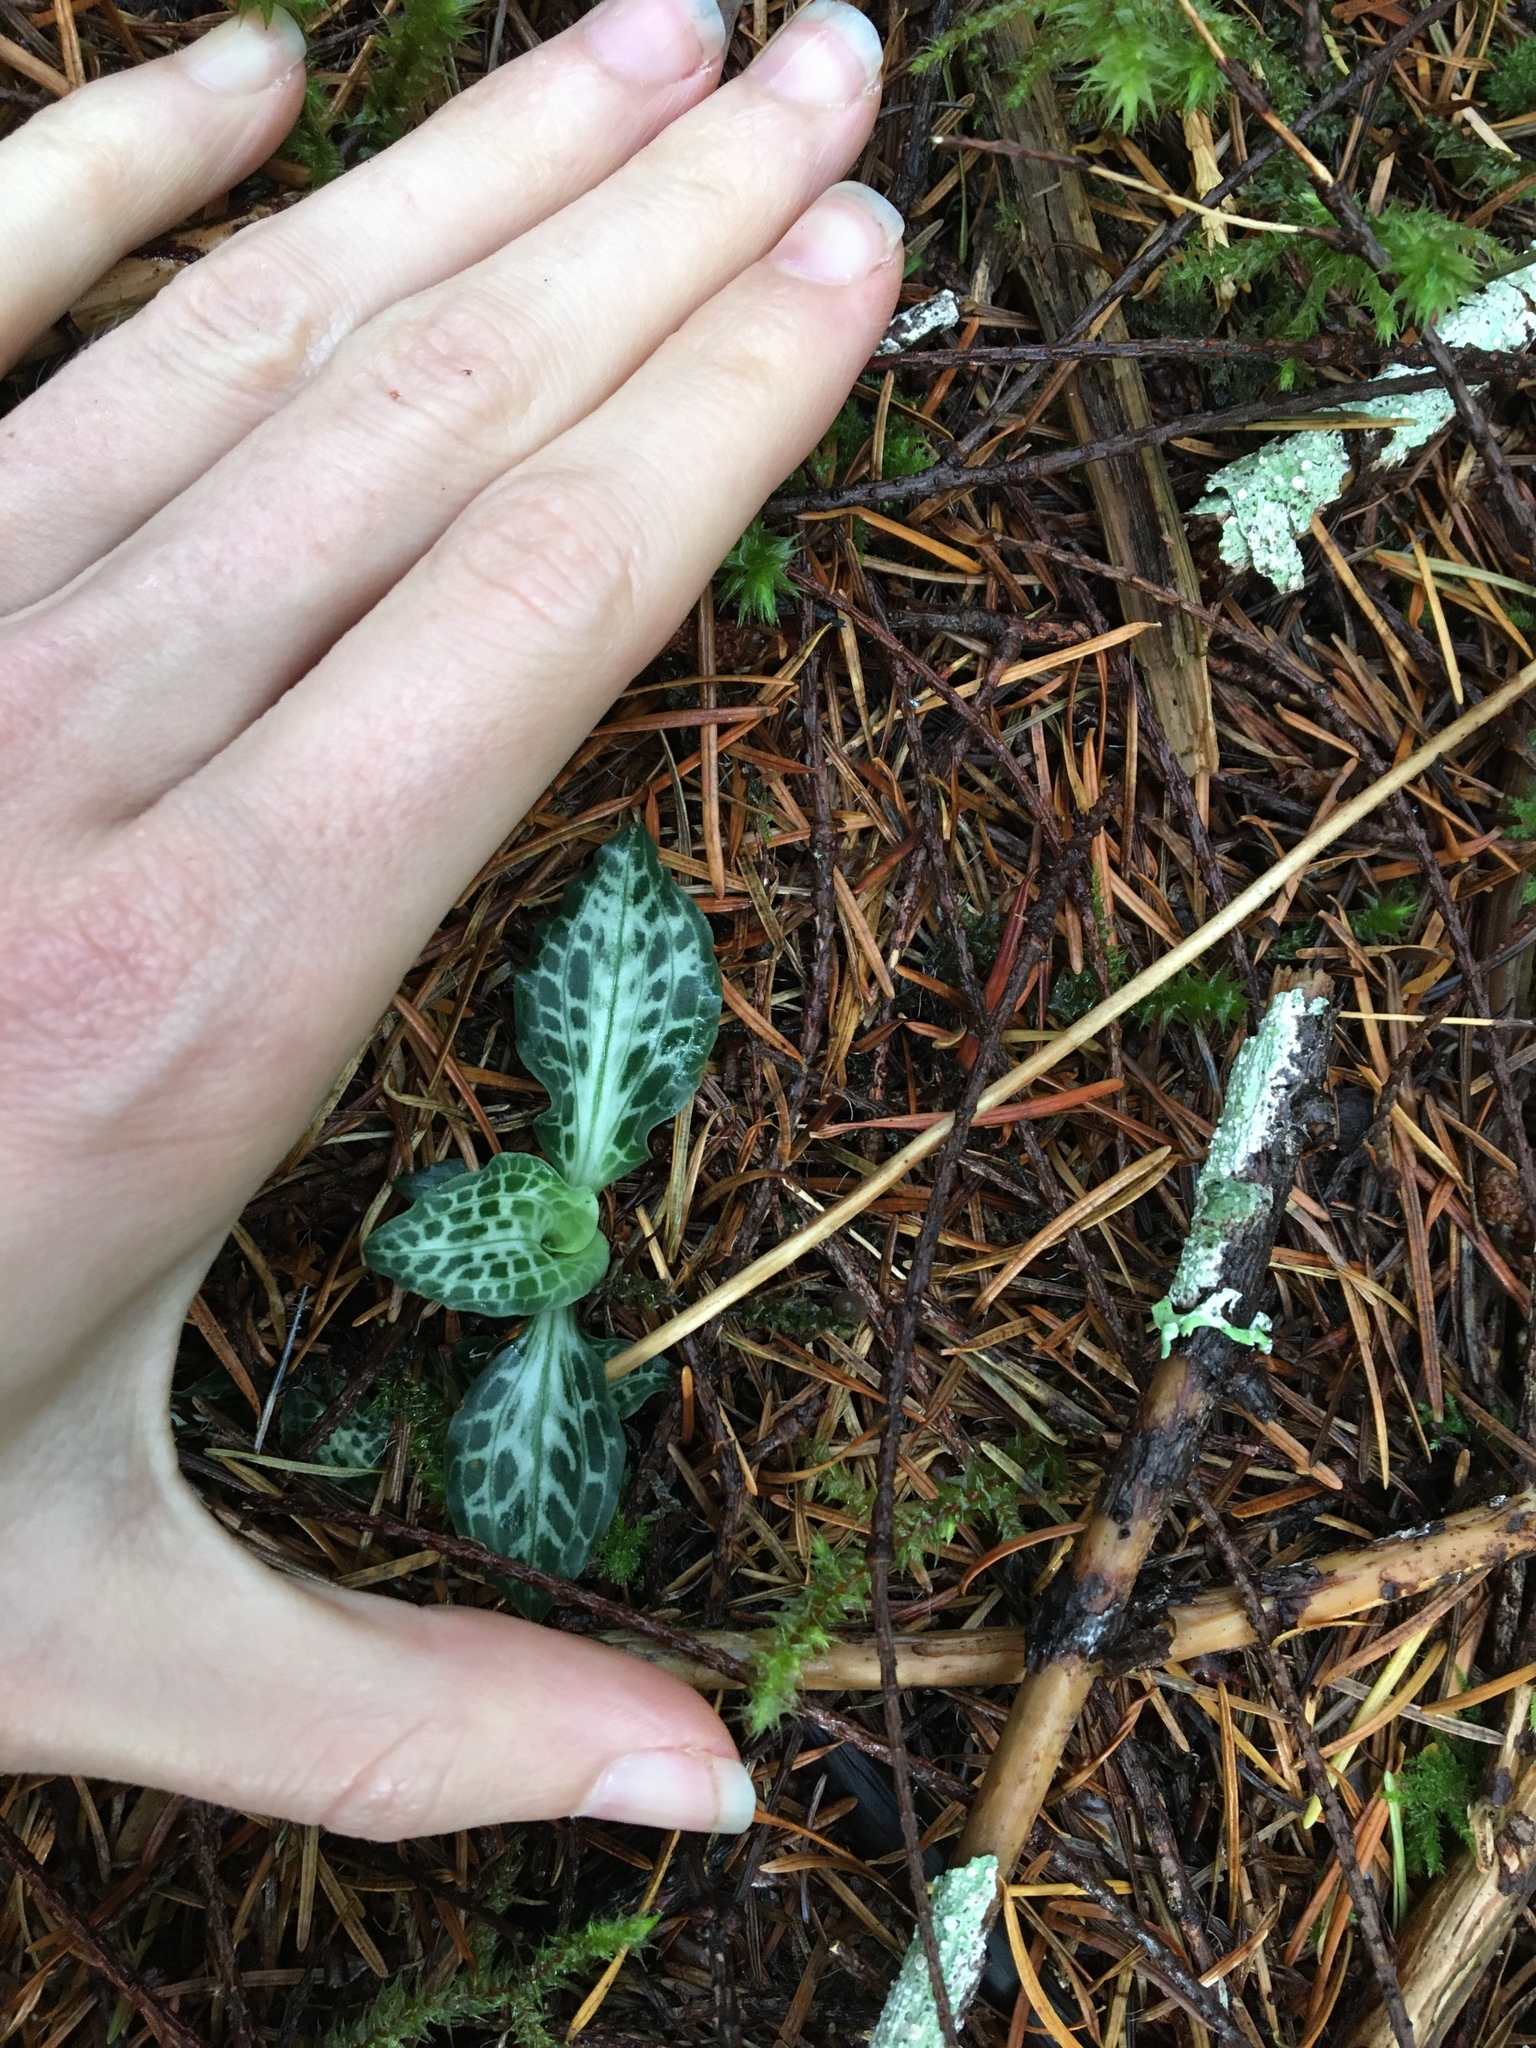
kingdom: Plantae
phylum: Tracheophyta
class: Liliopsida
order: Asparagales
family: Orchidaceae
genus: Goodyera
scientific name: Goodyera oblongifolia
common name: Giant rattlesnake-plantain
